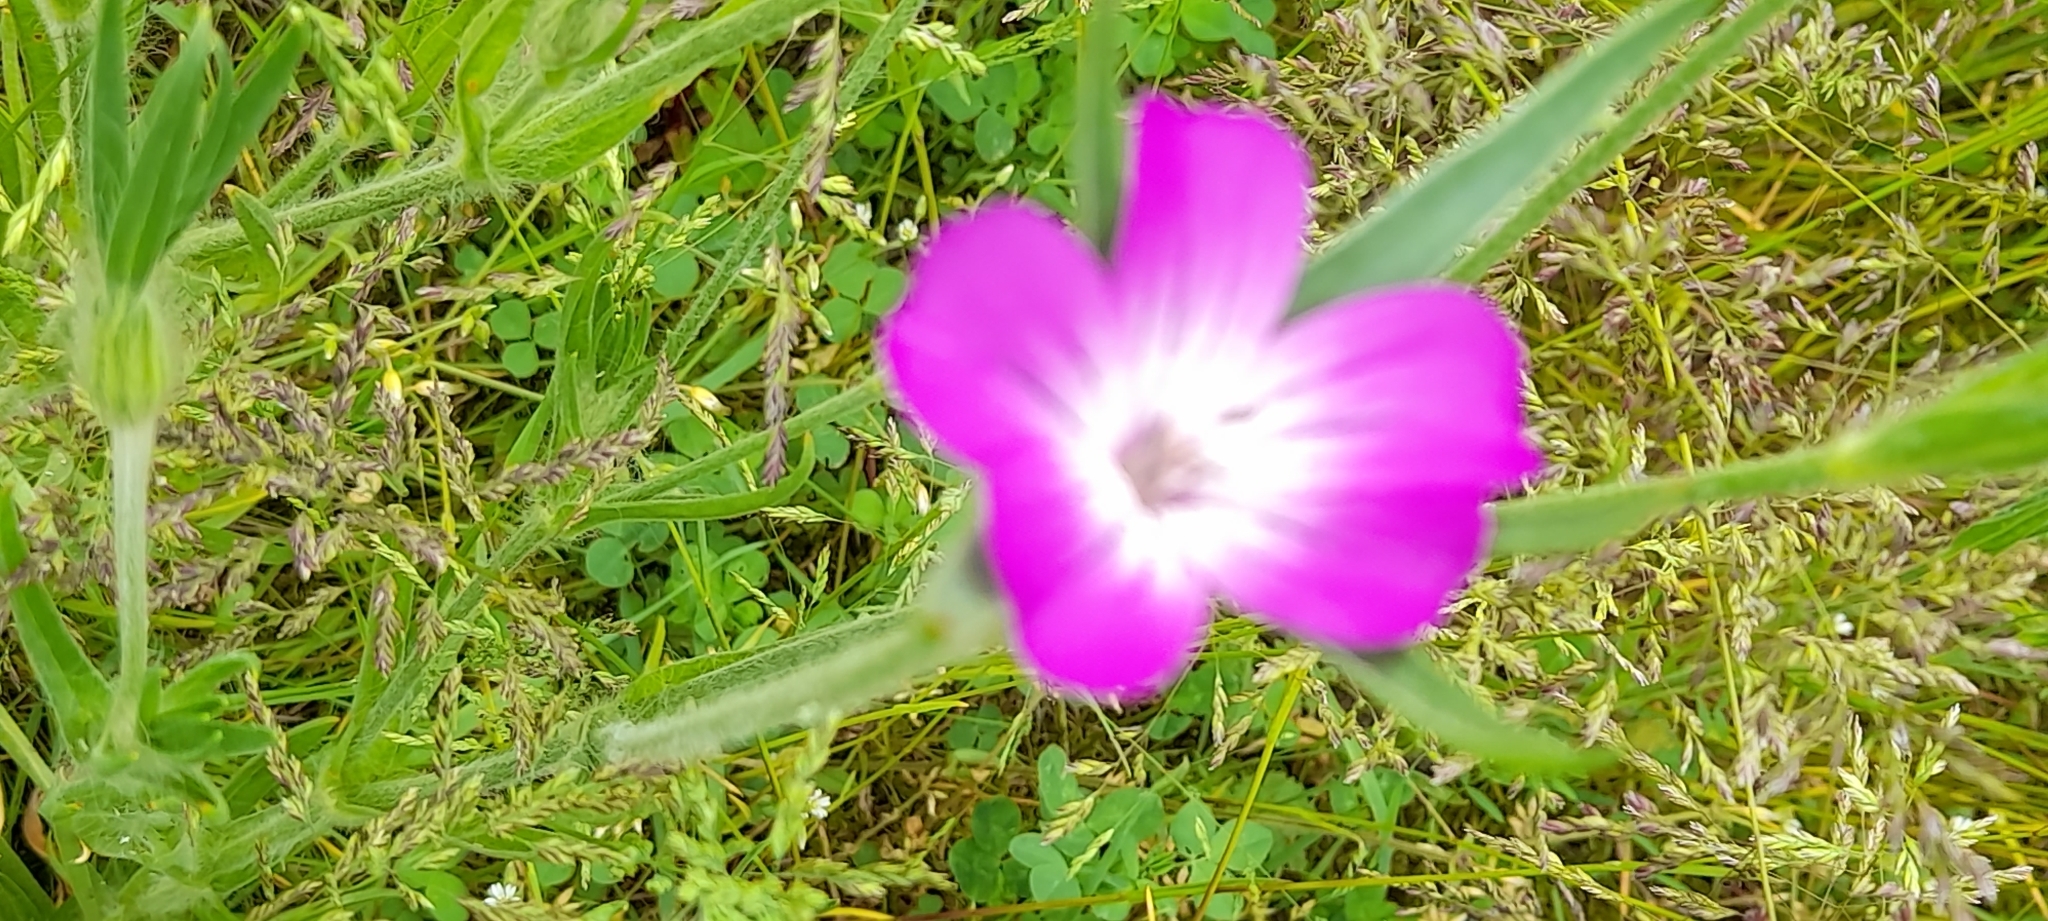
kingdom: Plantae
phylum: Tracheophyta
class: Magnoliopsida
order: Caryophyllales
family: Caryophyllaceae
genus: Agrostemma
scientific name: Agrostemma githago
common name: Common corncockle
